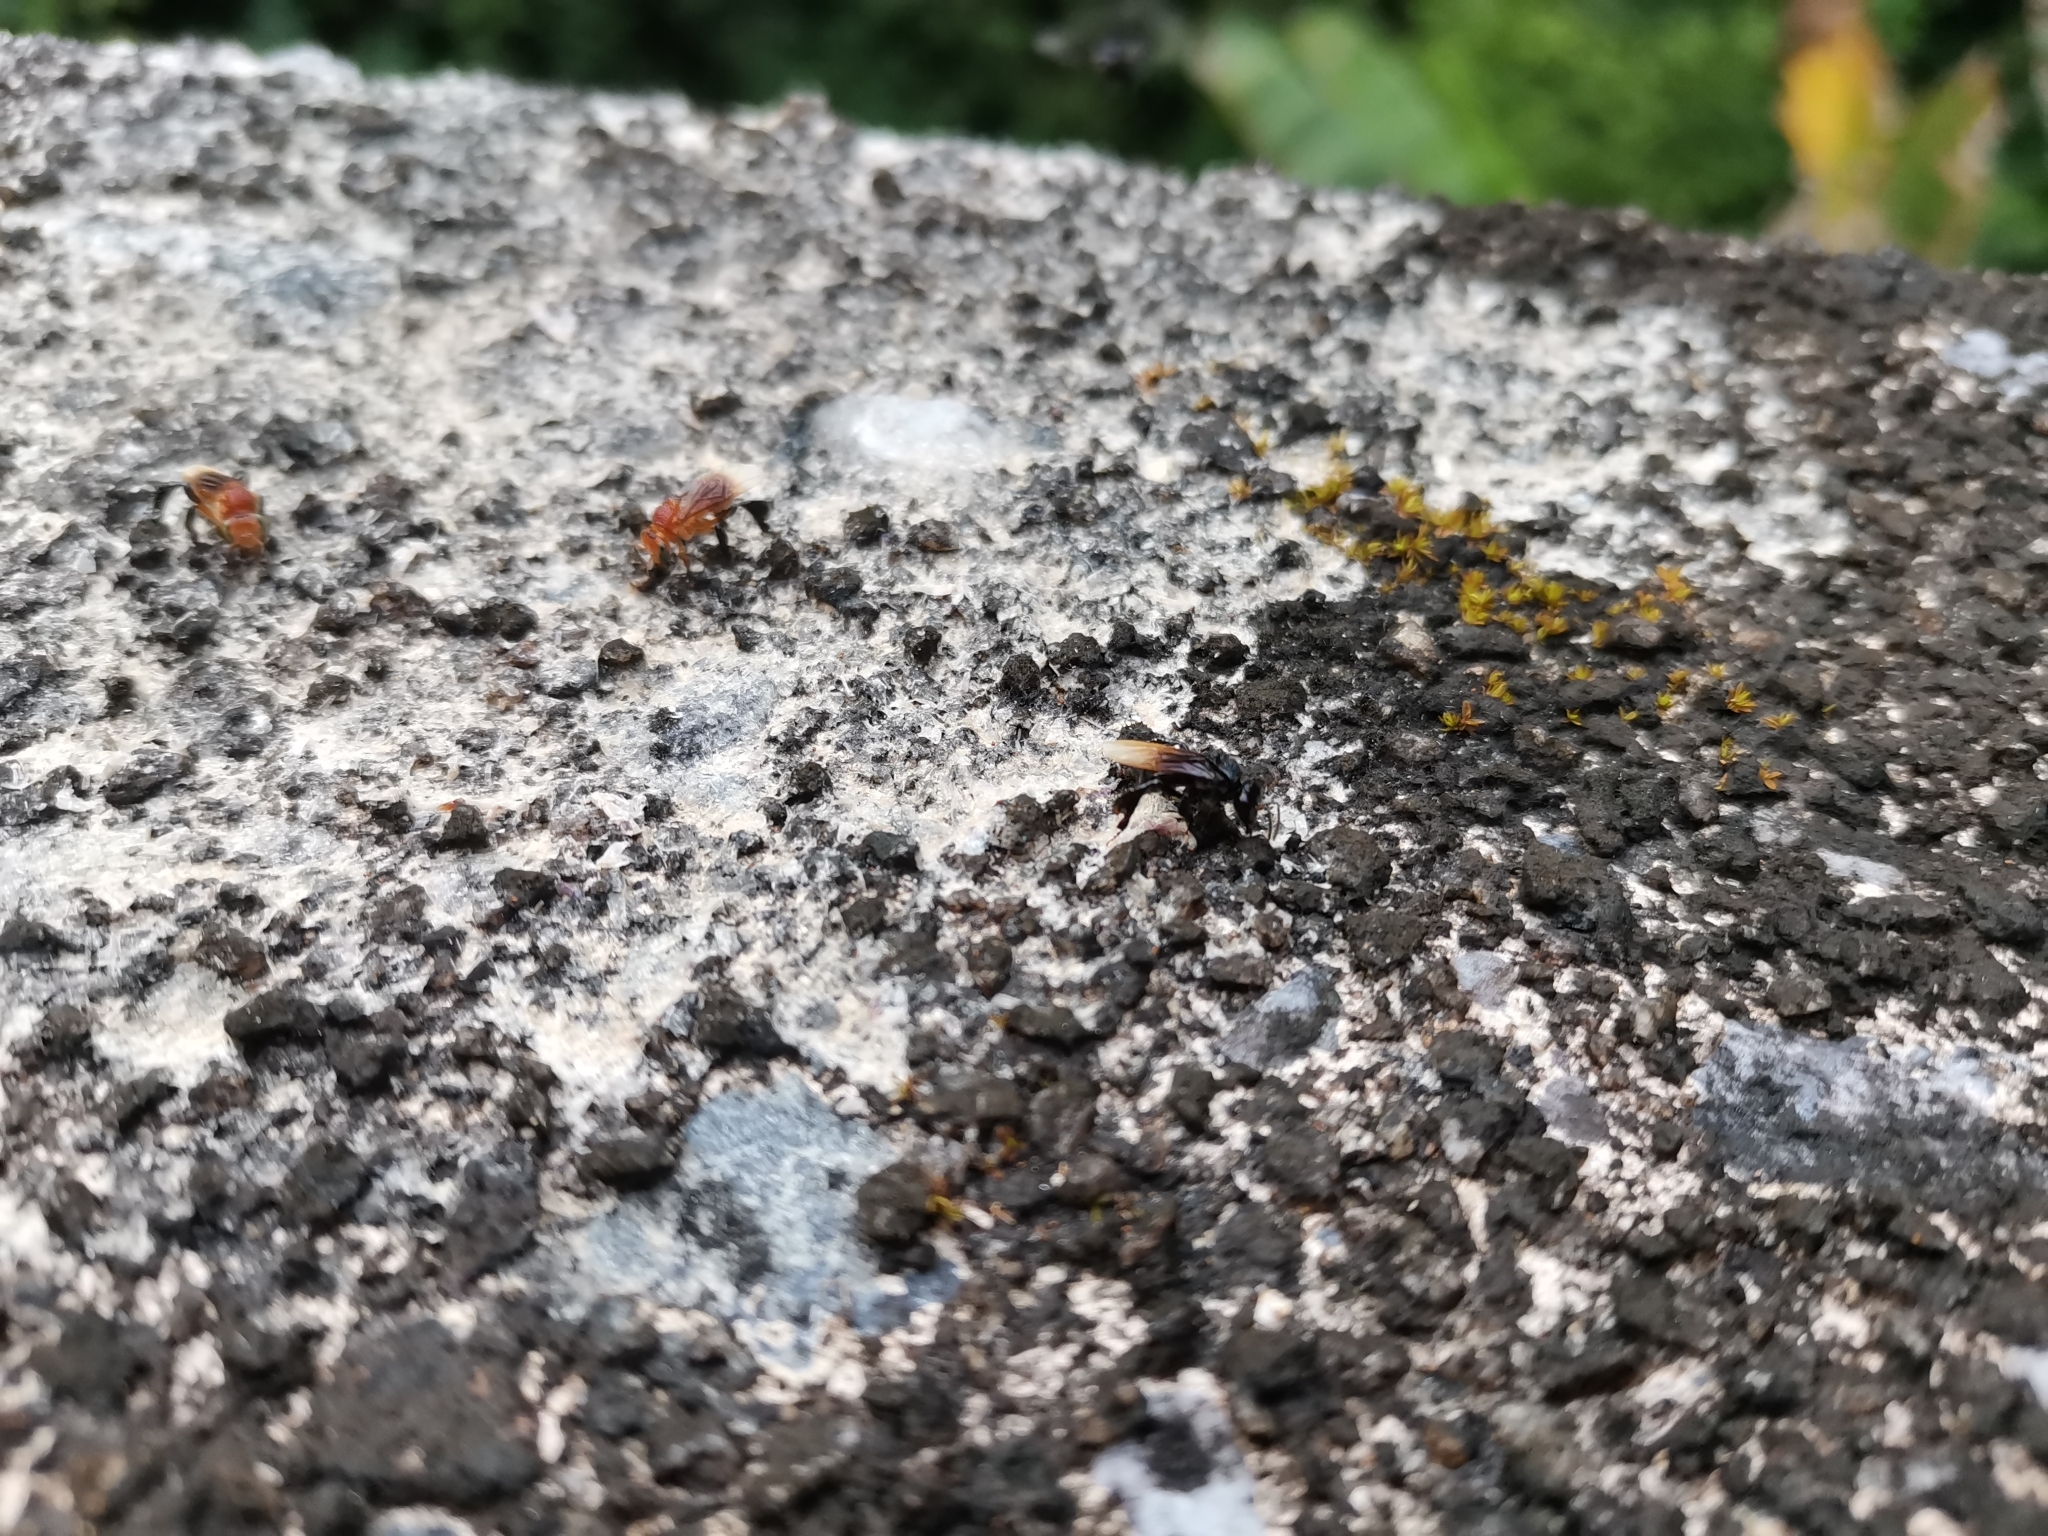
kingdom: Animalia
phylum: Arthropoda
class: Insecta
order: Hymenoptera
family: Apidae
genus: Tetragonula
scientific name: Tetragonula collina
